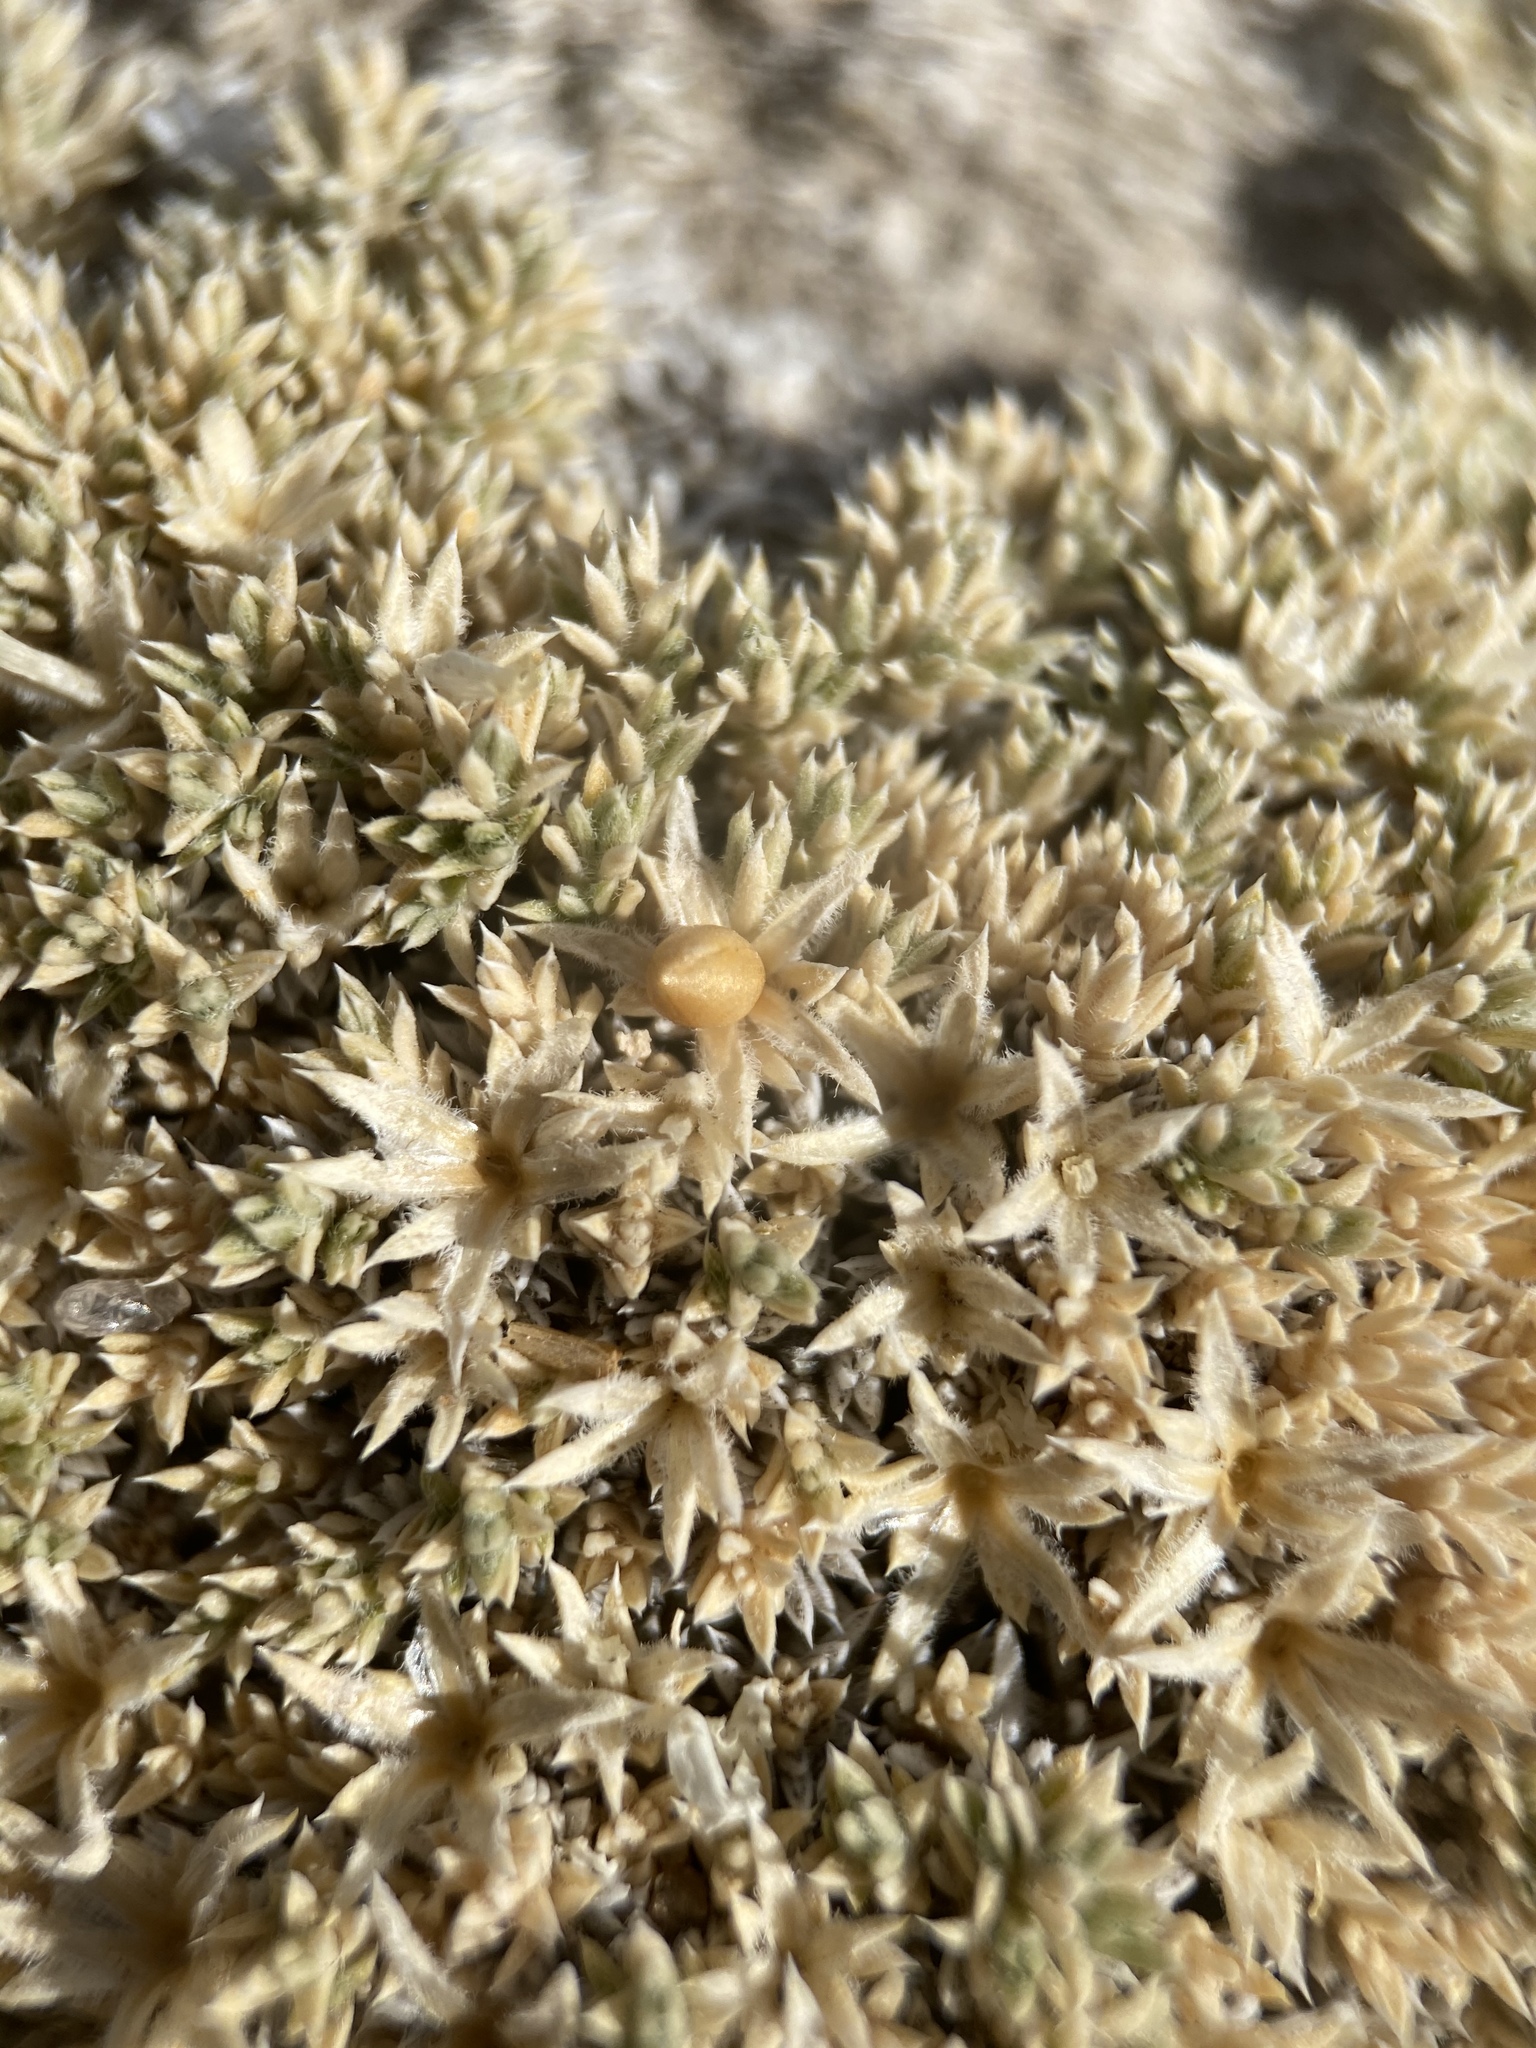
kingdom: Plantae
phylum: Tracheophyta
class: Magnoliopsida
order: Ericales
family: Polemoniaceae
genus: Phlox
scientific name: Phlox griseola
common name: Gray-leaf phlox
